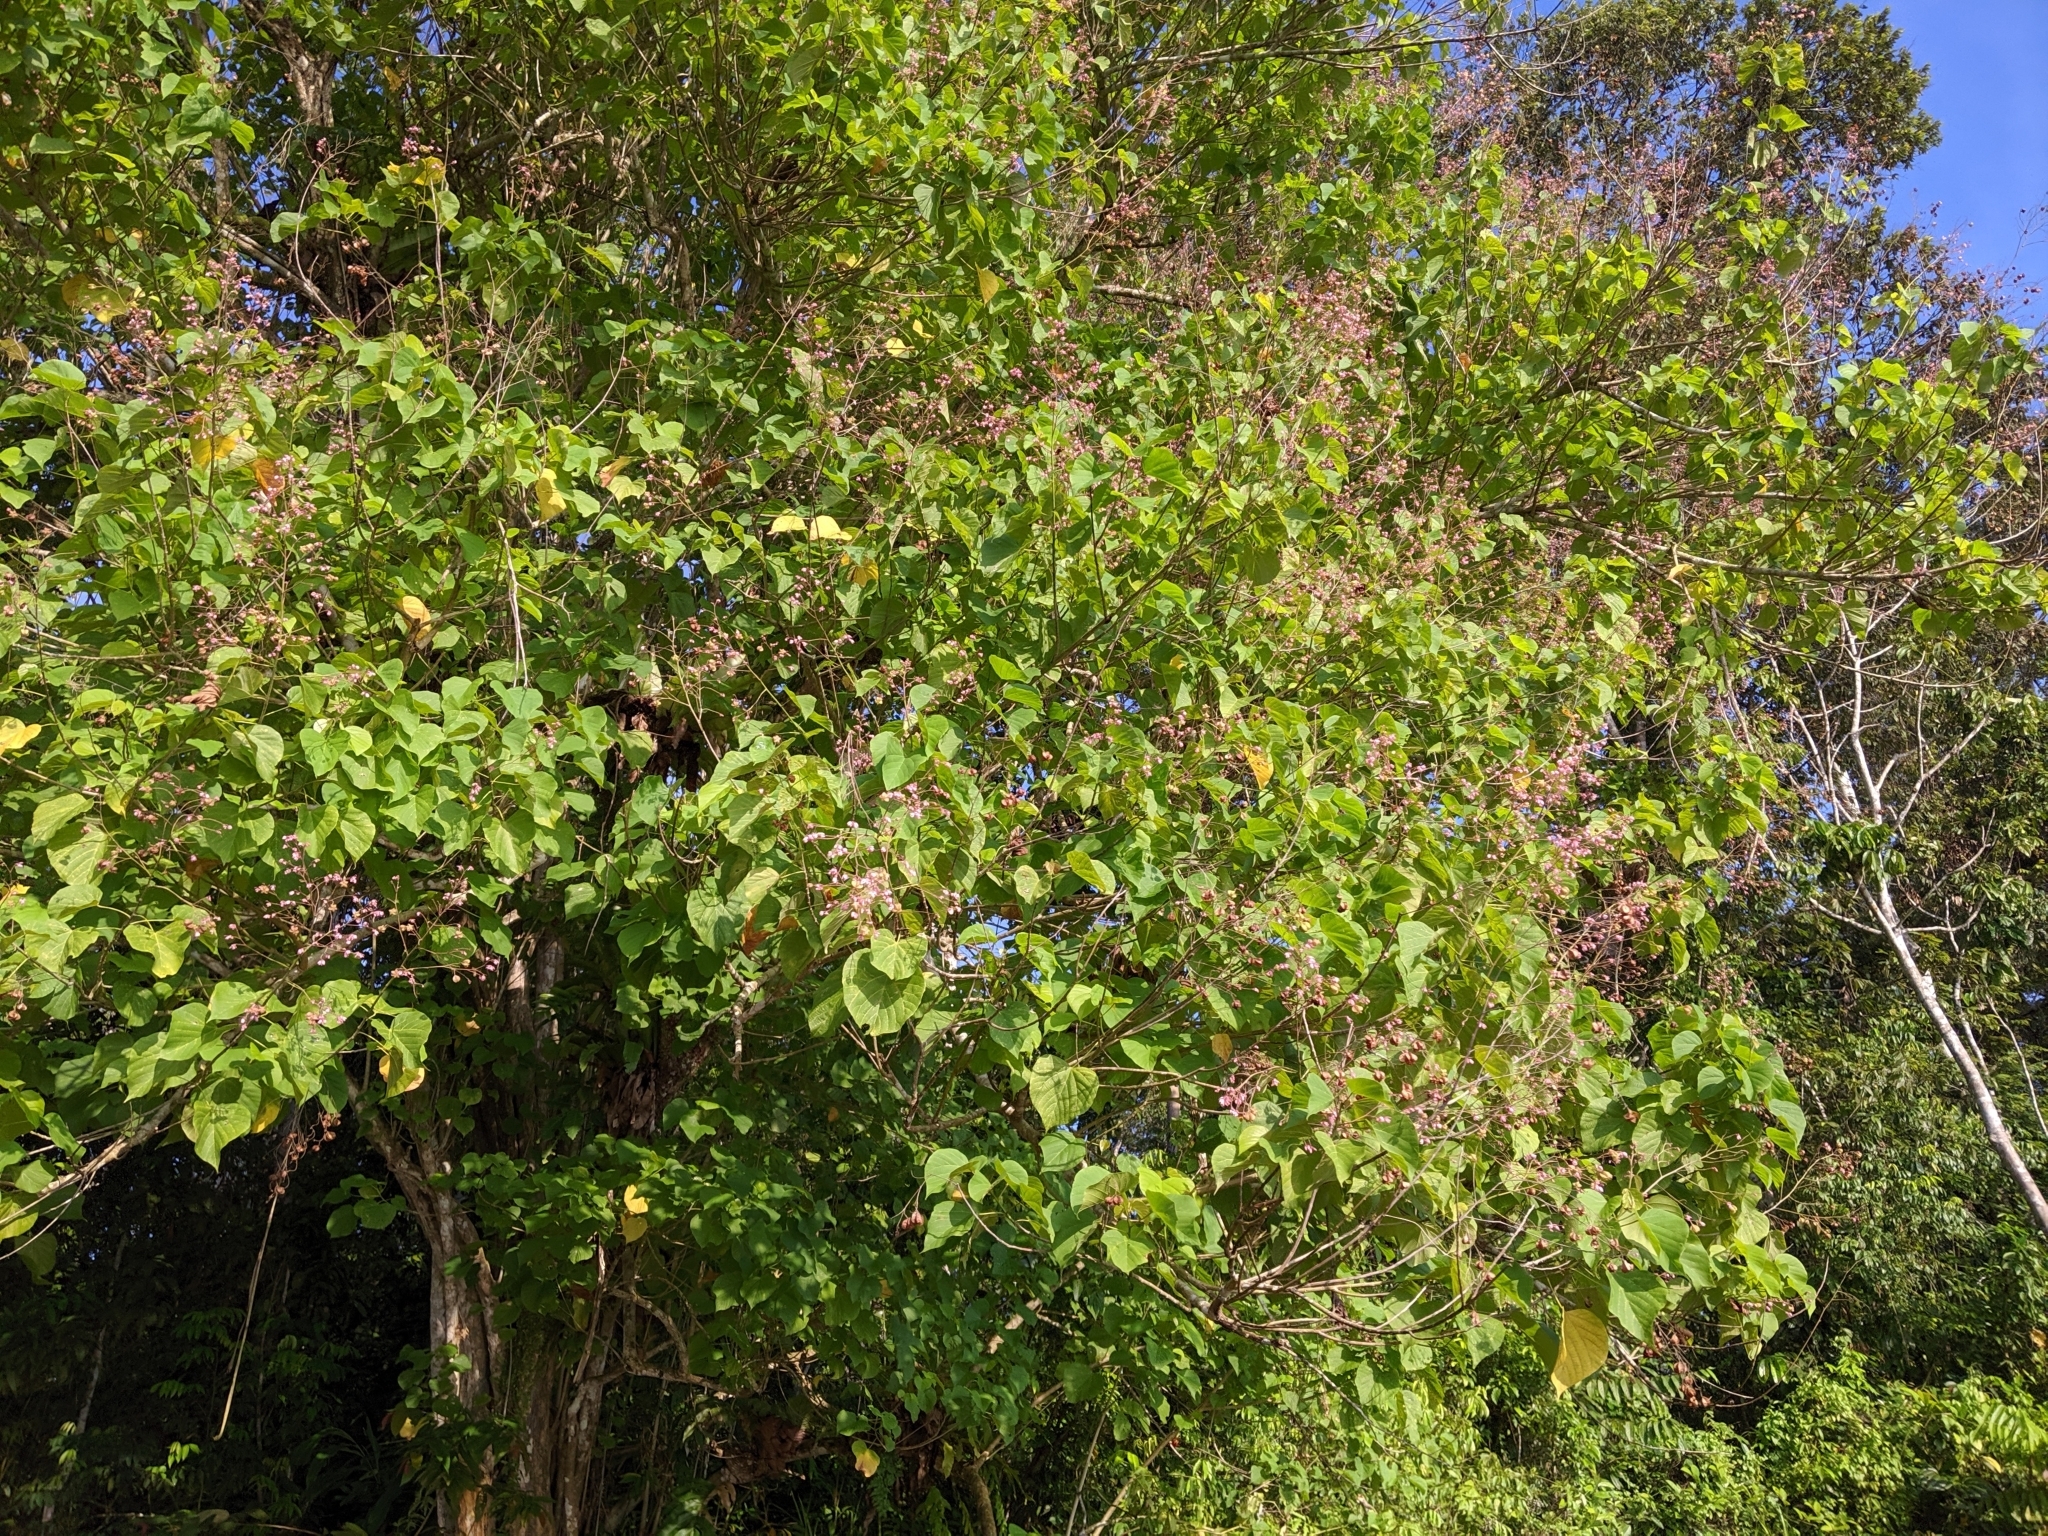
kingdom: Plantae
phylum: Tracheophyta
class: Magnoliopsida
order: Malvales
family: Malvaceae
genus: Kleinhovia
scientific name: Kleinhovia hospita
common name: Guest-tree
